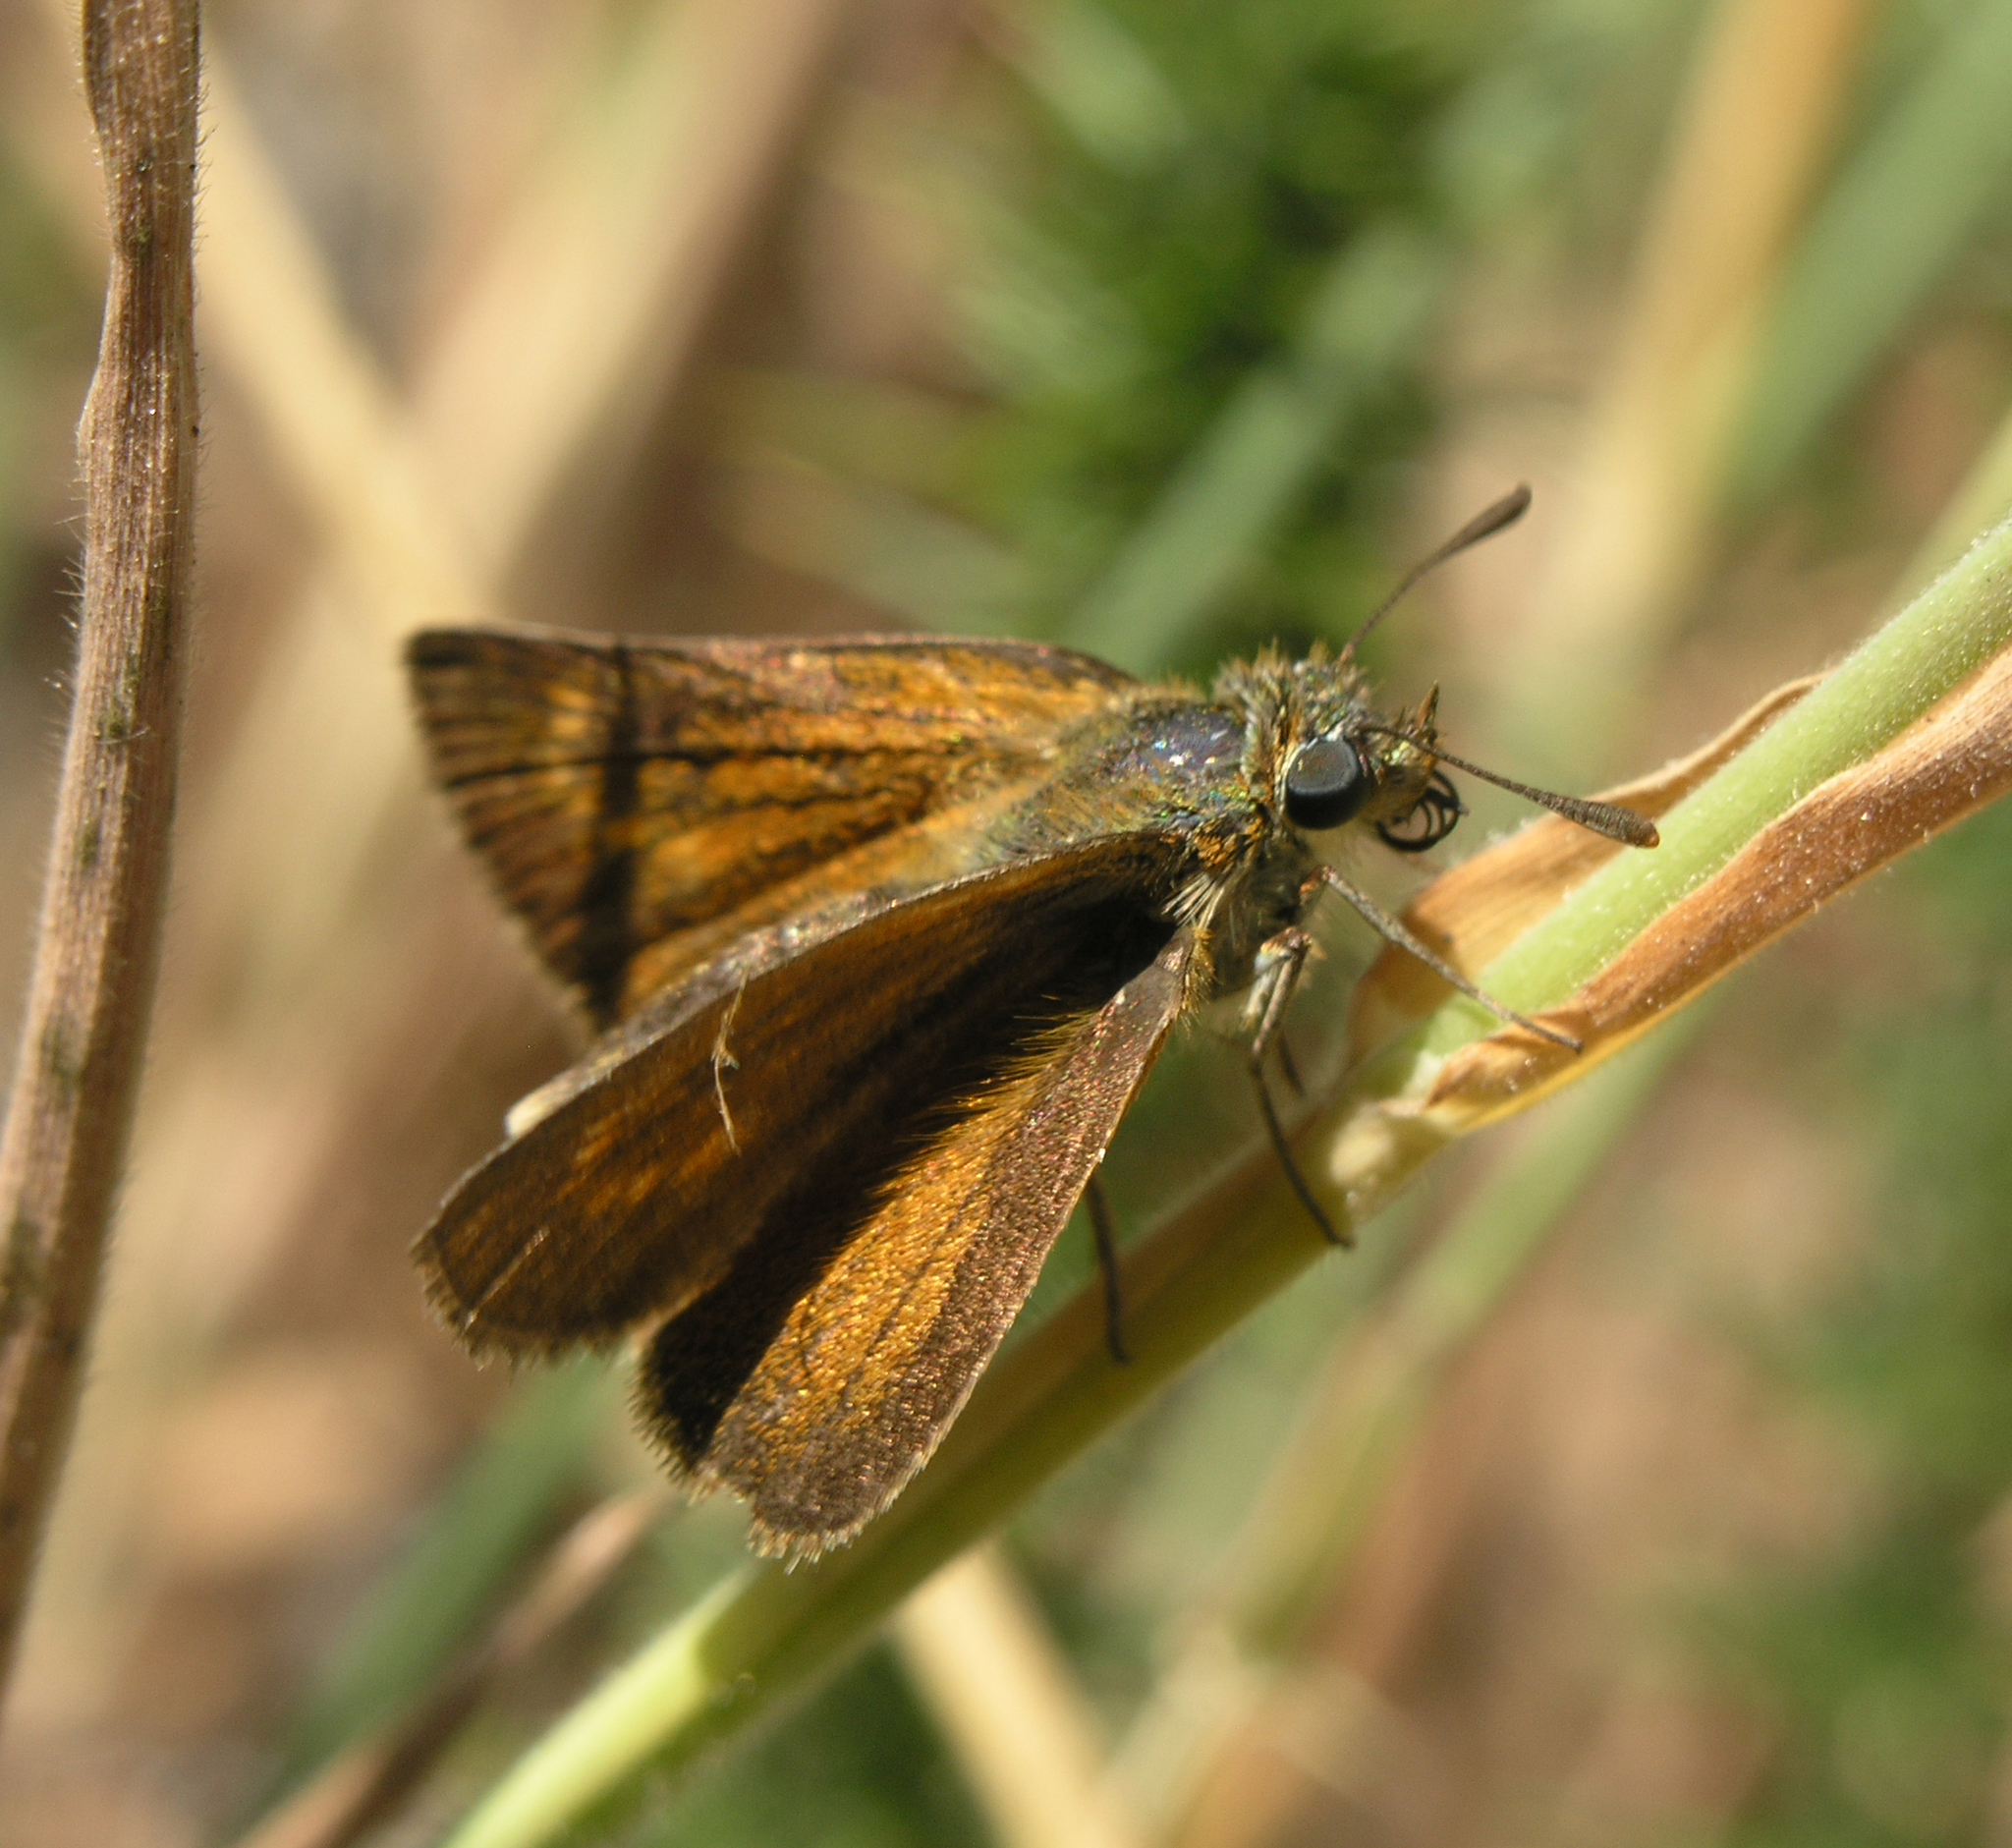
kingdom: Animalia
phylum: Arthropoda
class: Insecta
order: Lepidoptera
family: Hesperiidae
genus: Thymelicus
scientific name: Thymelicus acteon
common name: Lulworth skipper
